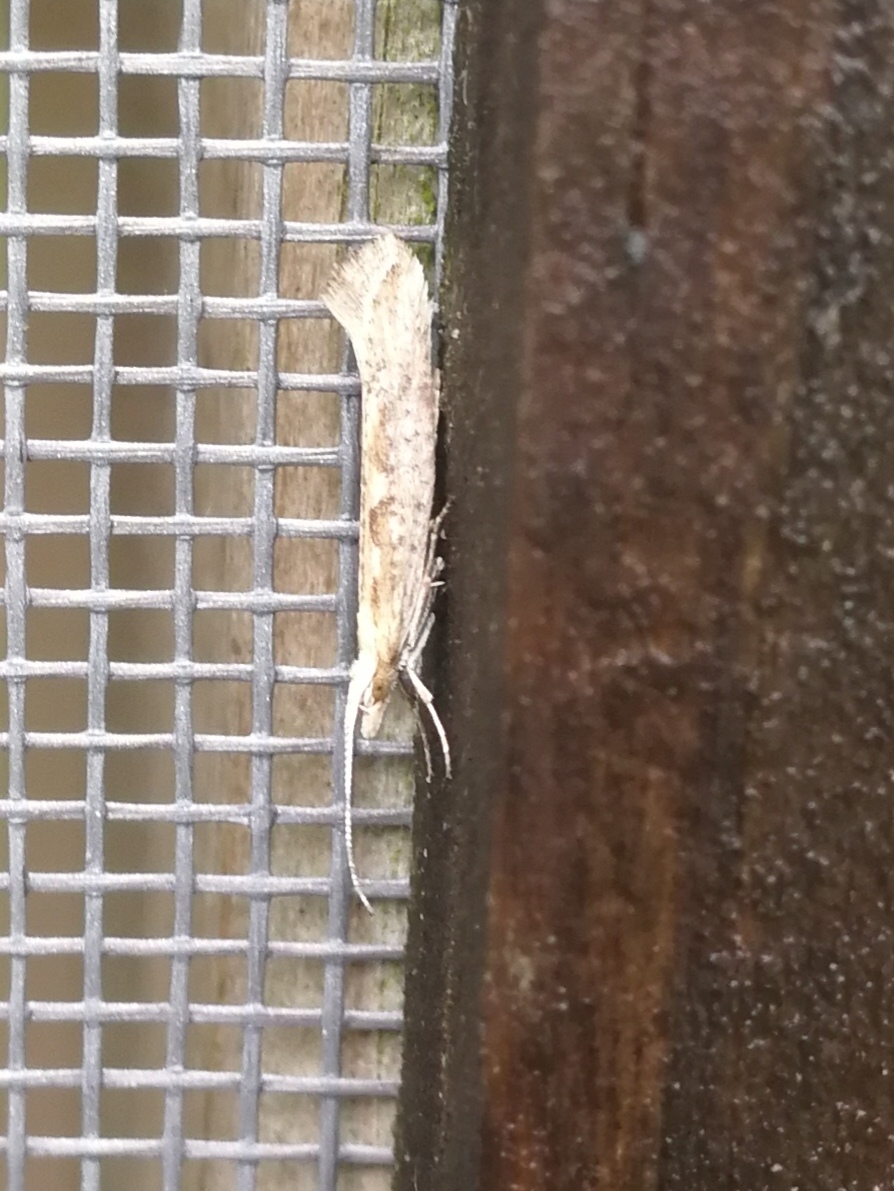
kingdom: Animalia
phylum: Arthropoda
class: Insecta
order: Lepidoptera
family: Plutellidae
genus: Plutella
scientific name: Plutella xylostella
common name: Diamond-back moth
